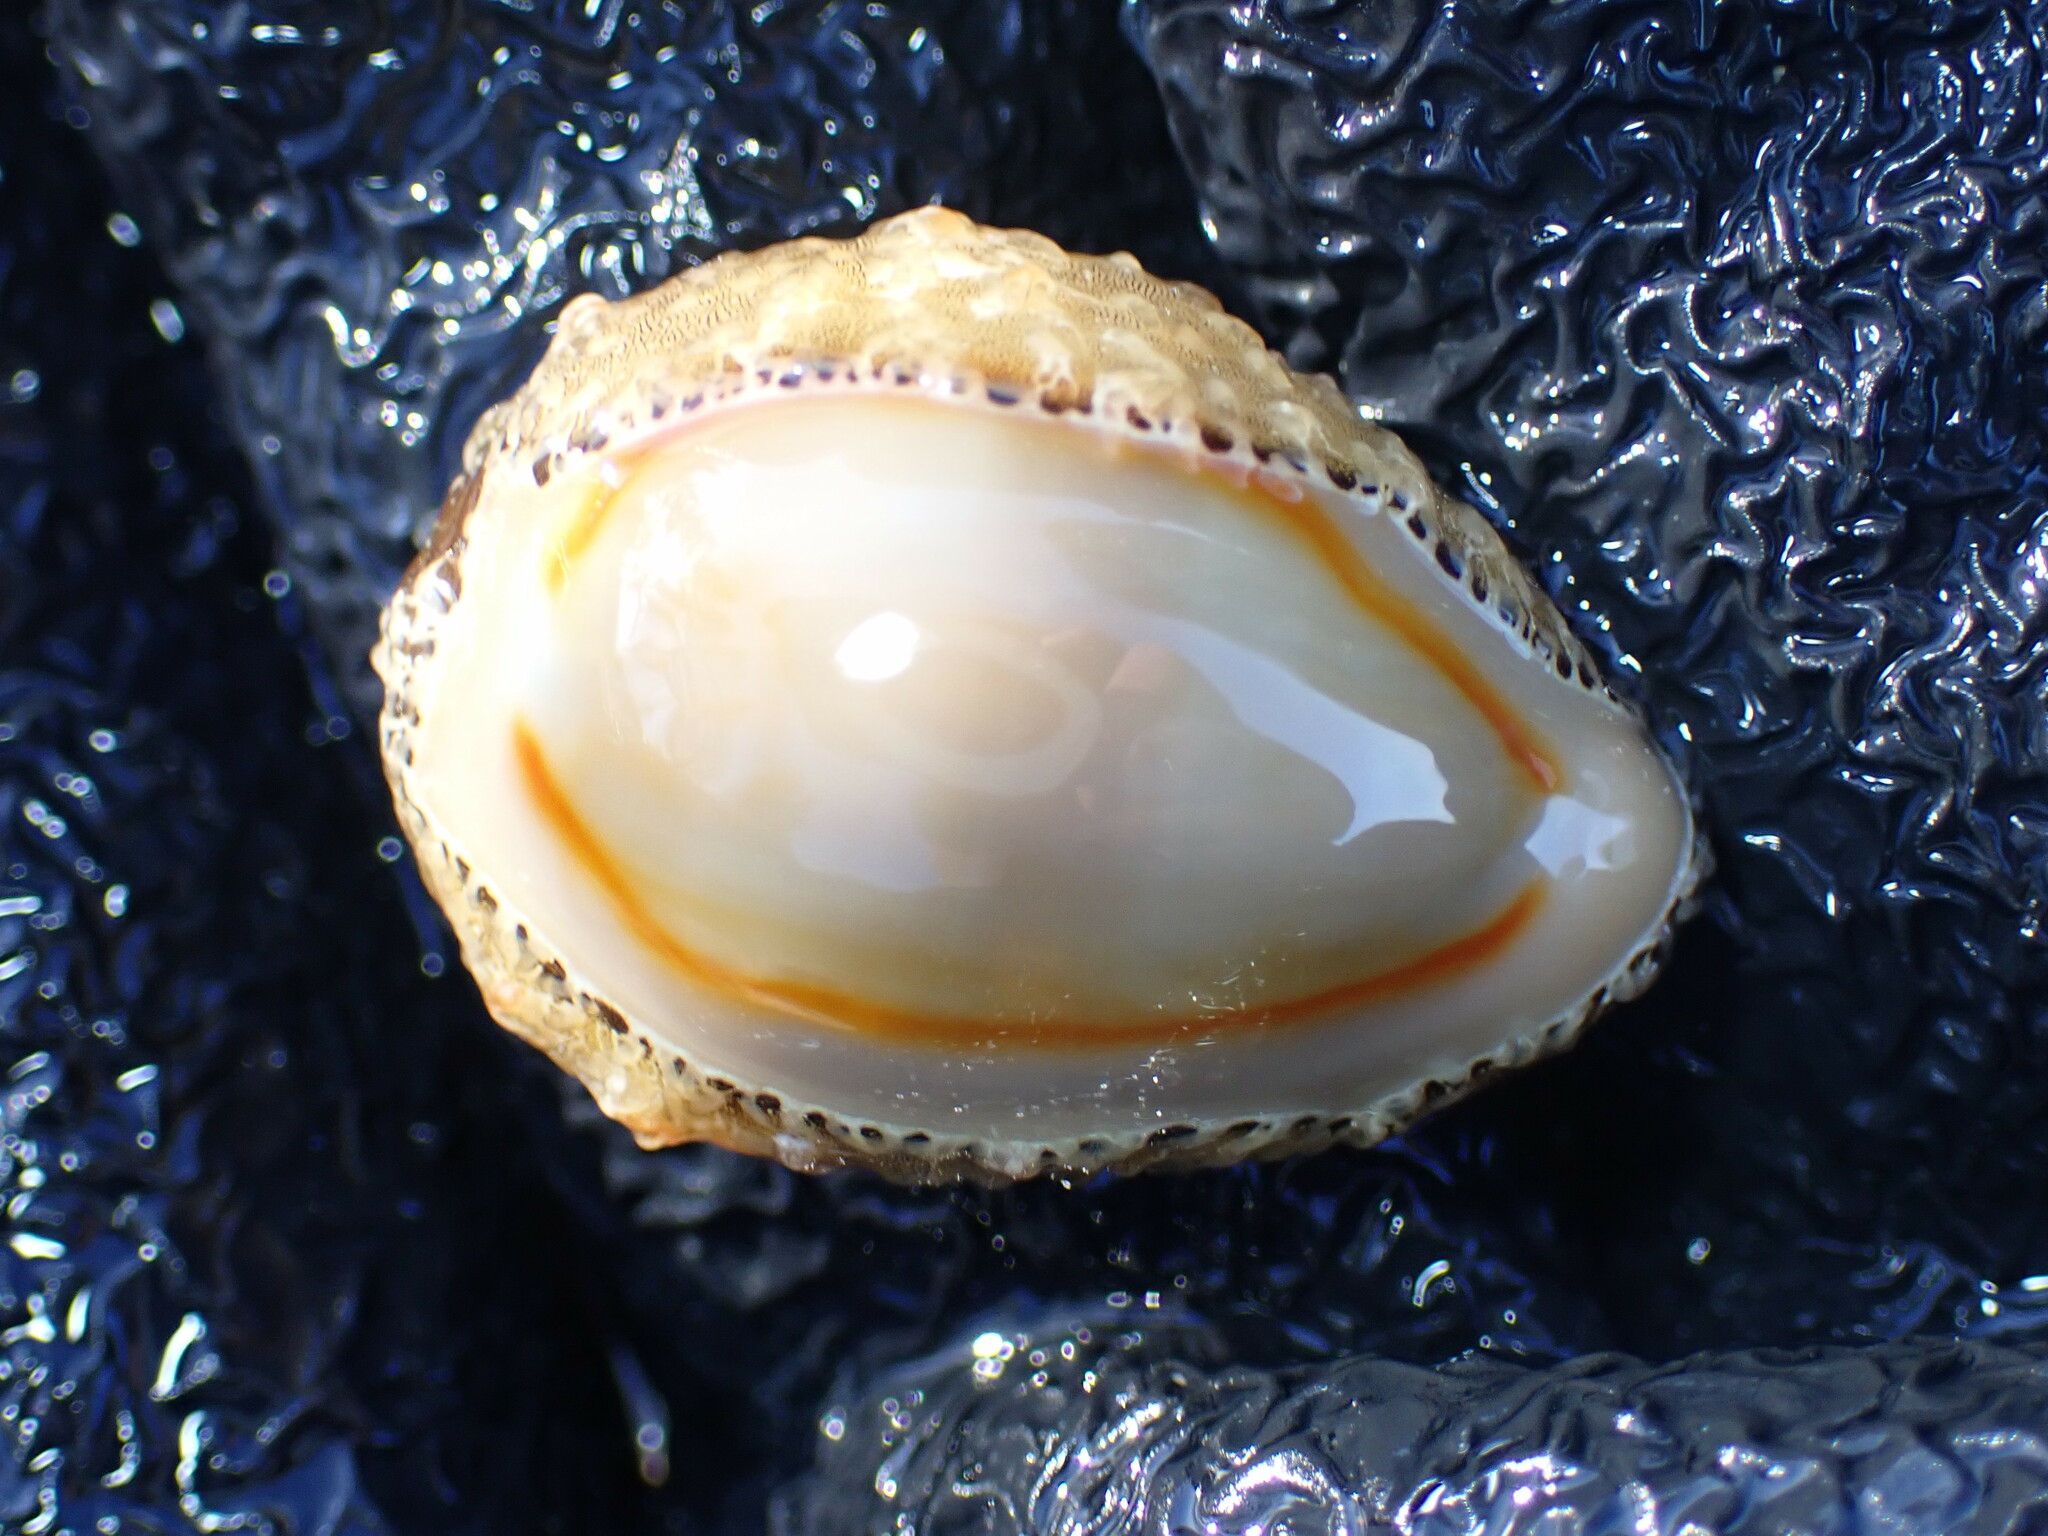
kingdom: Animalia
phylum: Mollusca
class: Gastropoda
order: Littorinimorpha
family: Cypraeidae
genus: Monetaria
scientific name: Monetaria annulus
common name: Ring cowrie
